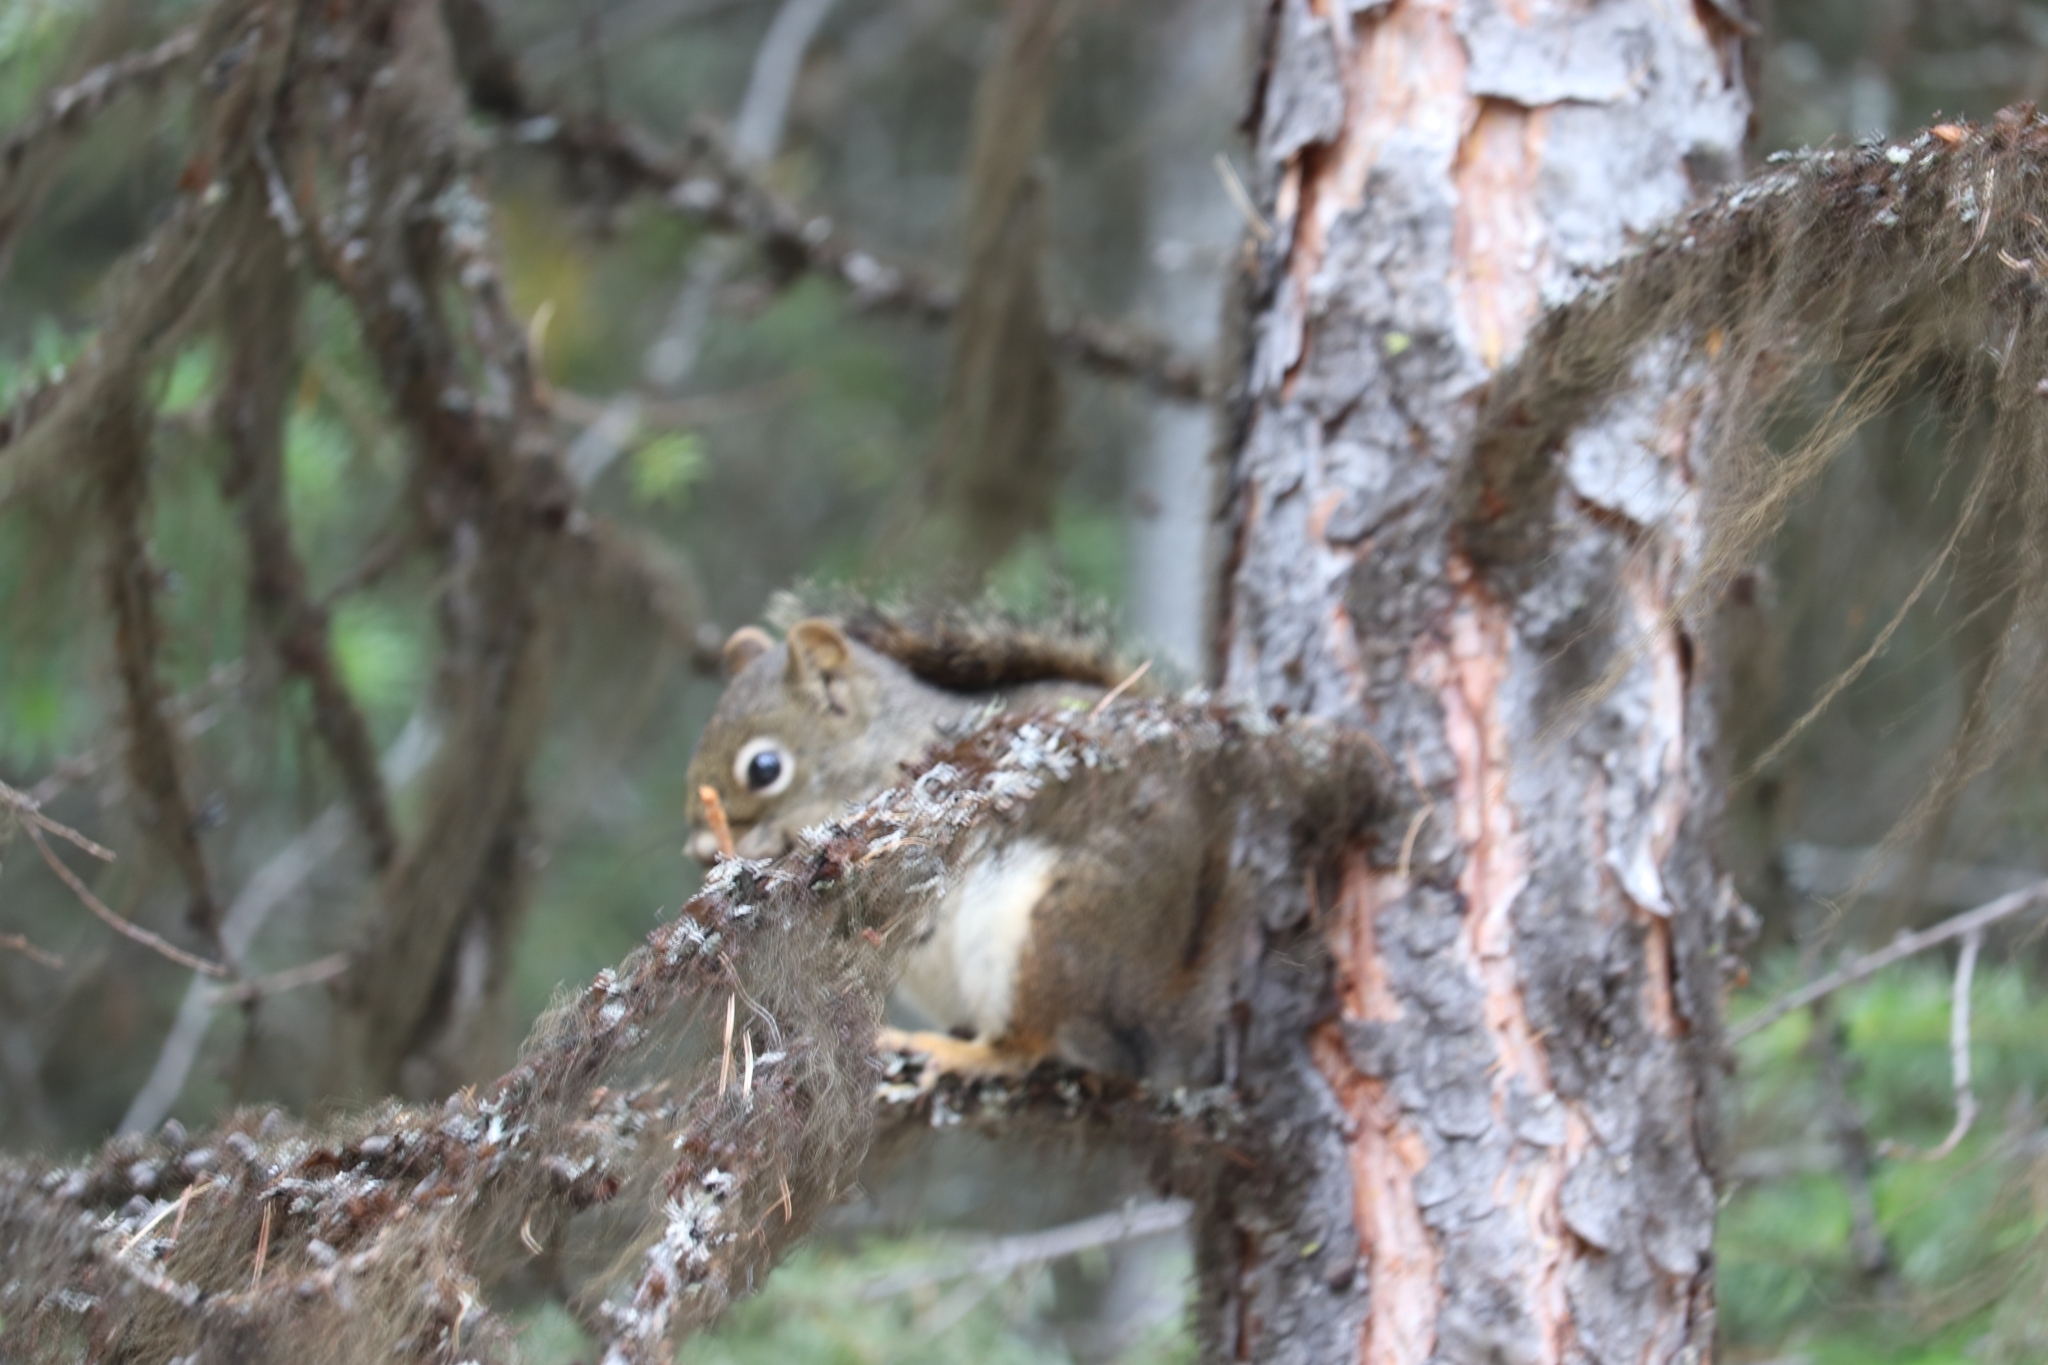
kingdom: Animalia
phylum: Chordata
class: Mammalia
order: Rodentia
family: Sciuridae
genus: Tamiasciurus
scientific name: Tamiasciurus hudsonicus
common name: Red squirrel
